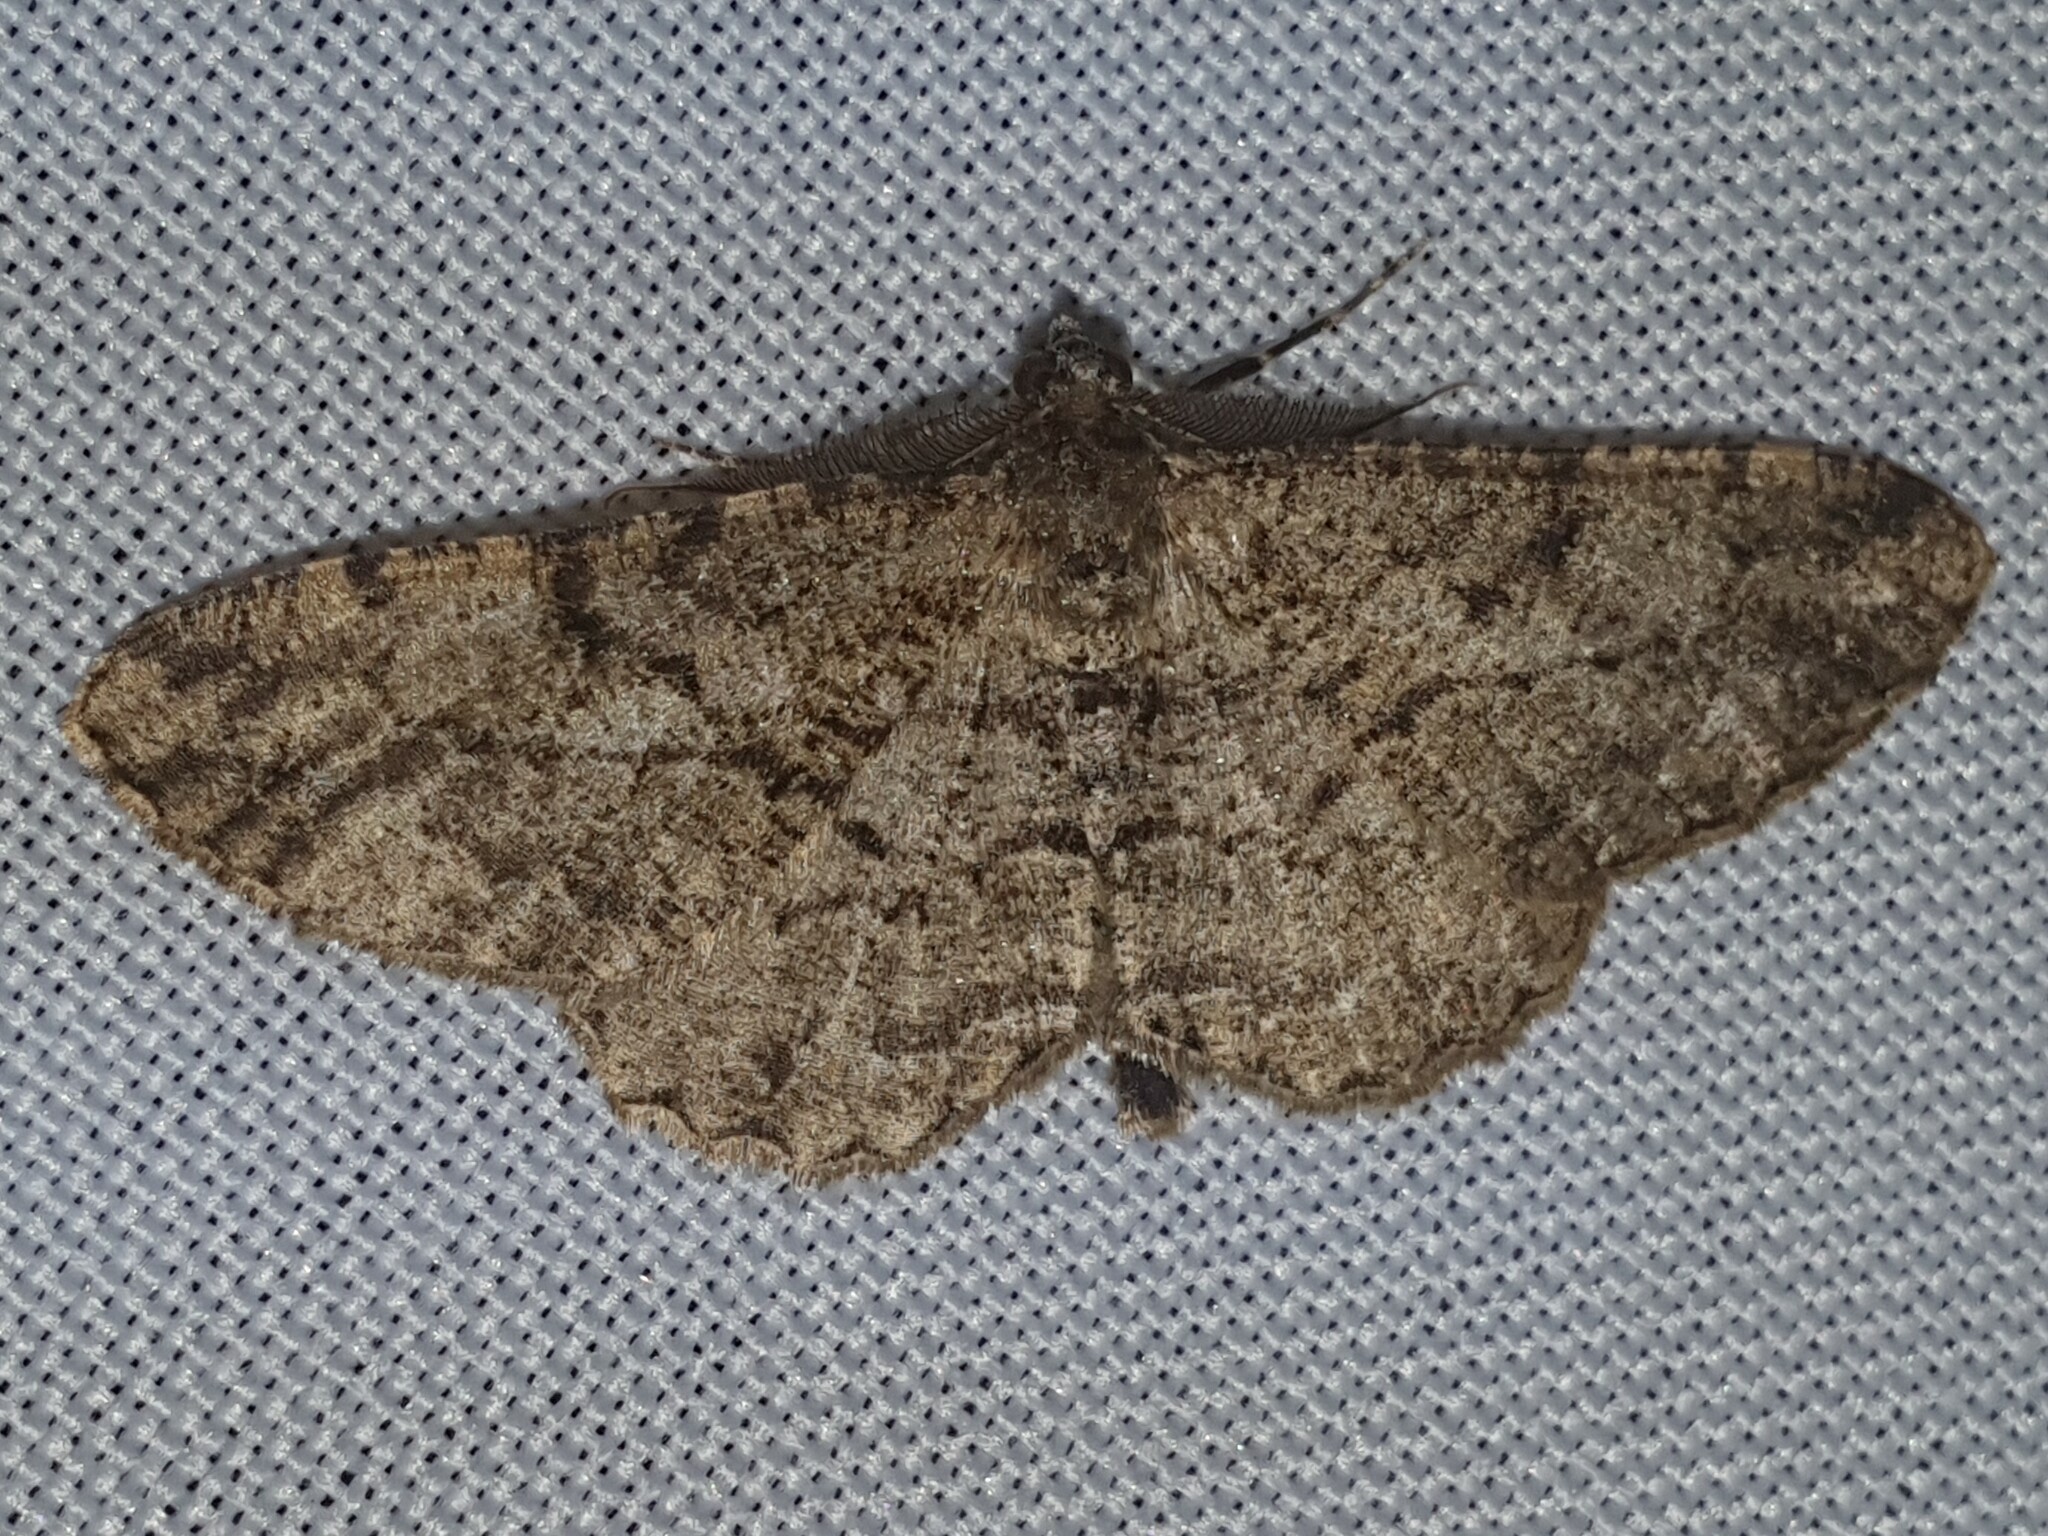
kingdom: Animalia
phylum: Arthropoda
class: Insecta
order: Lepidoptera
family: Geometridae
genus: Peribatodes
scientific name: Peribatodes rhomboidaria
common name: Willow beauty
